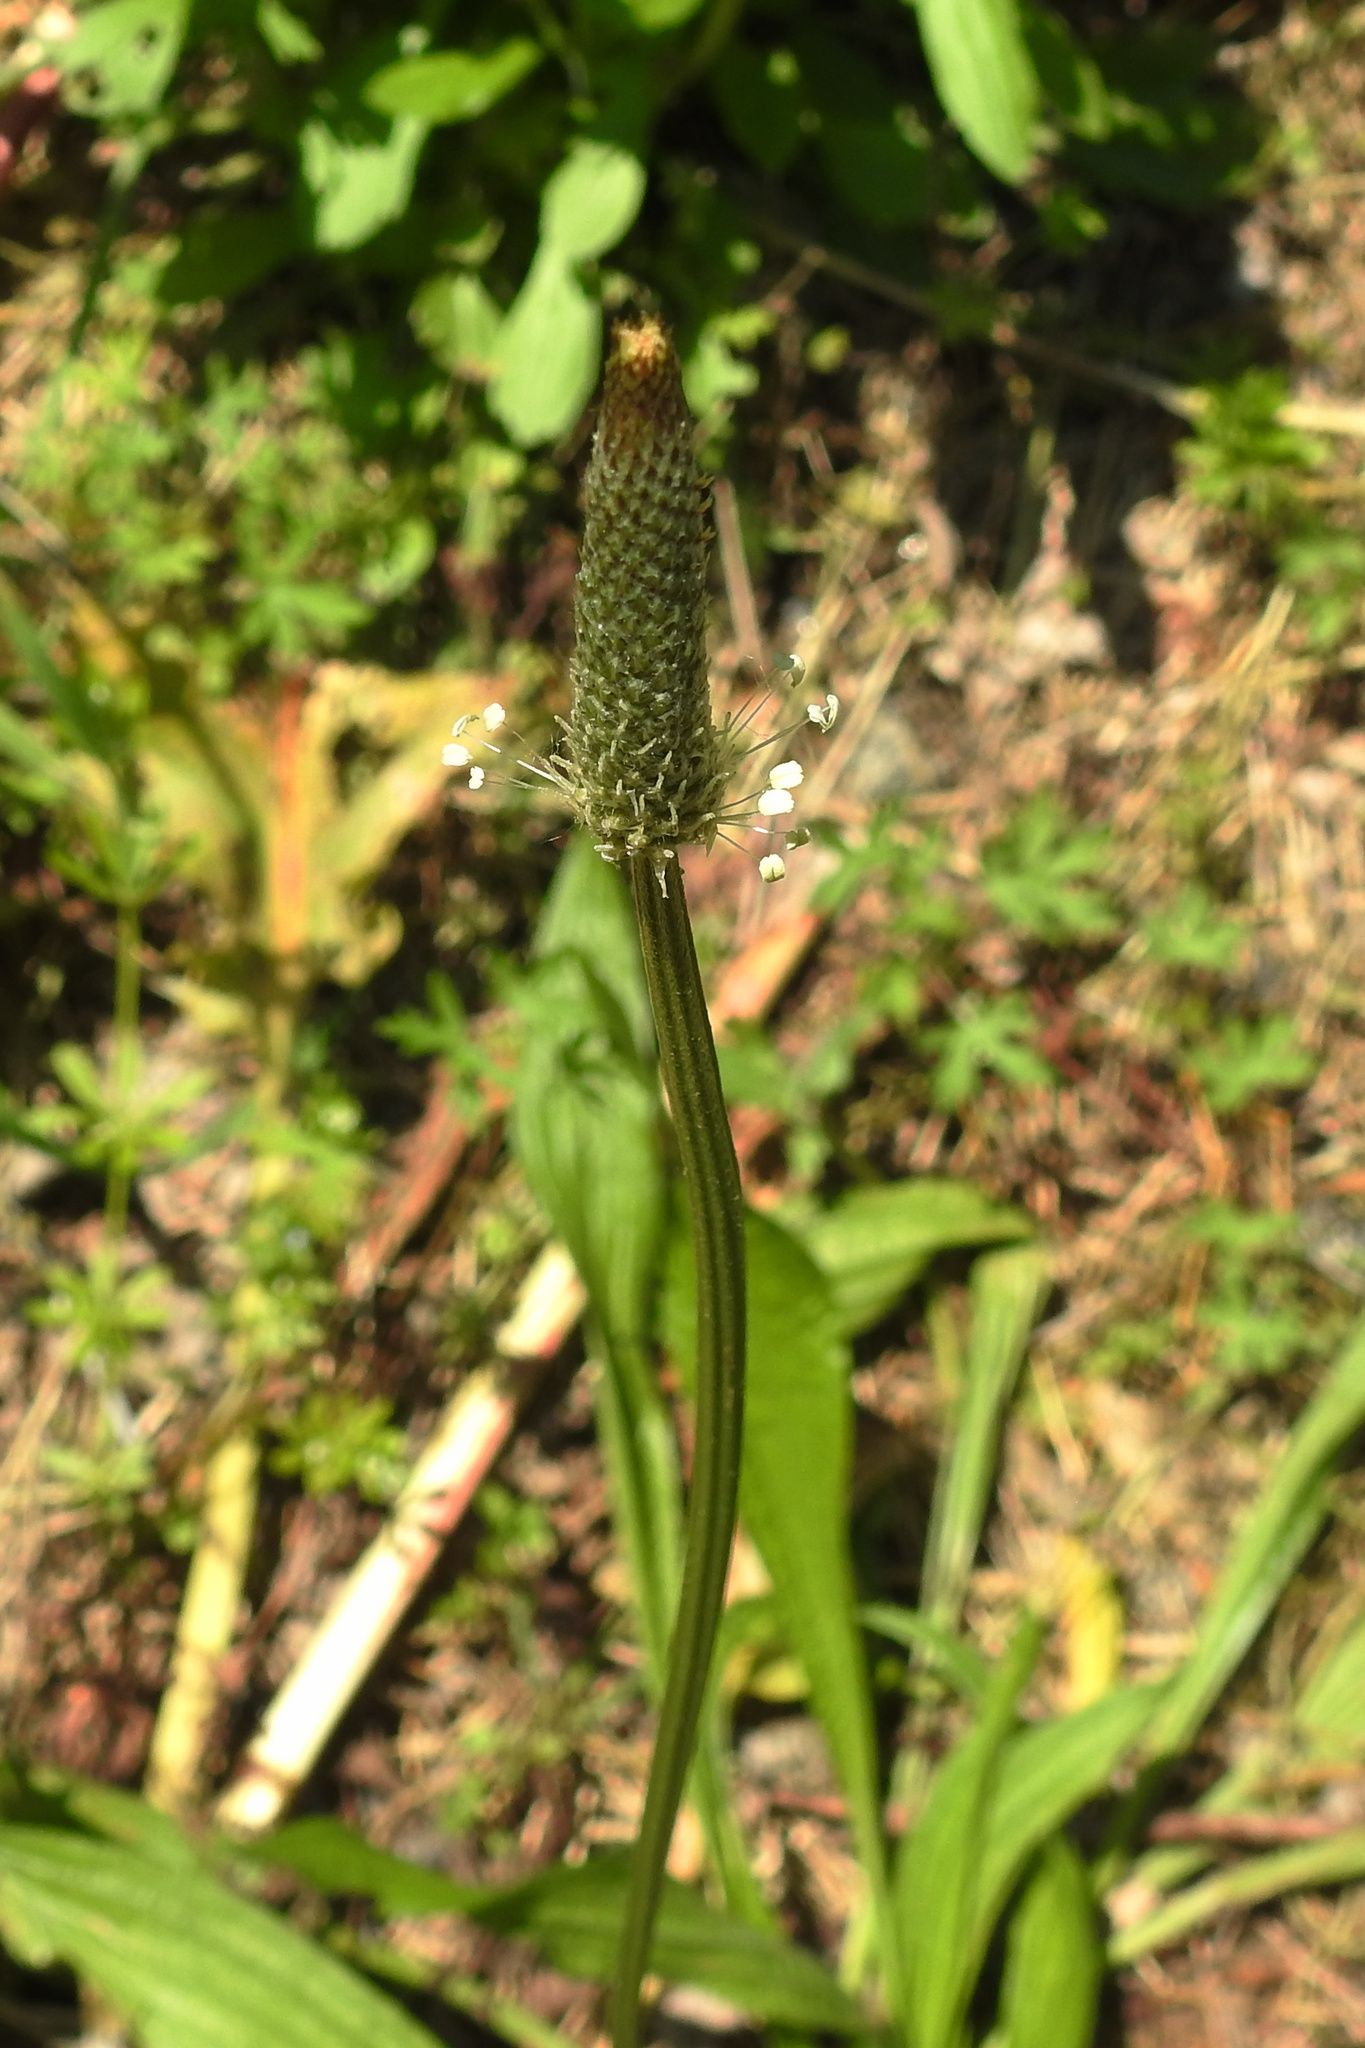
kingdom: Plantae
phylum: Tracheophyta
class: Magnoliopsida
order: Lamiales
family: Plantaginaceae
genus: Plantago
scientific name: Plantago lanceolata
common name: Ribwort plantain
